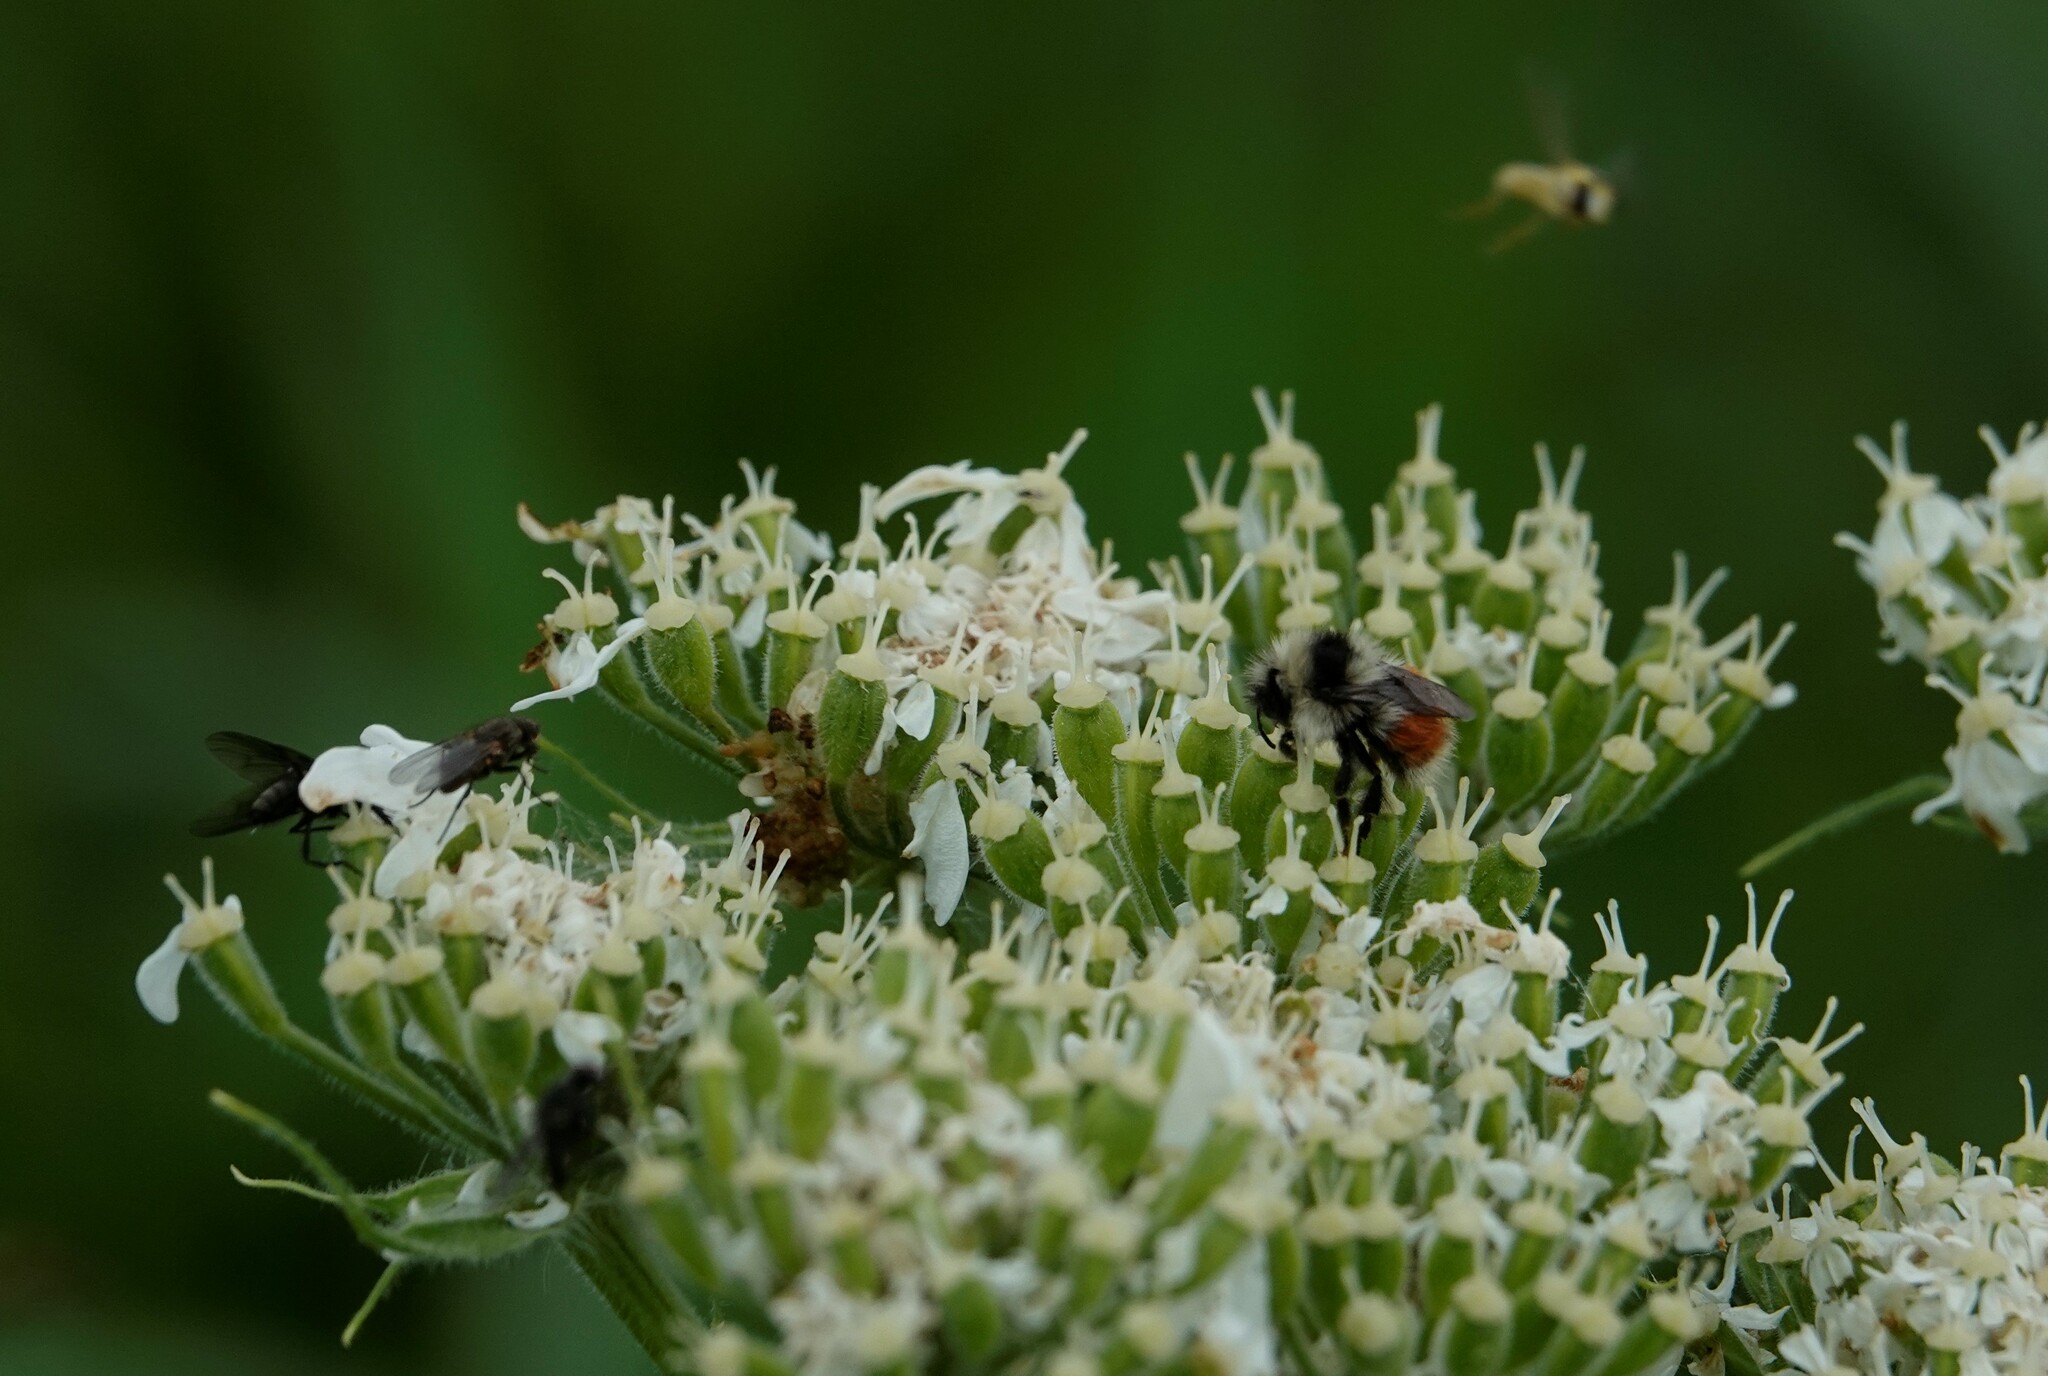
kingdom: Animalia
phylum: Arthropoda
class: Insecta
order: Hymenoptera
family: Apidae
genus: Bombus
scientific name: Bombus sylvicola
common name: Forest bumble bee
